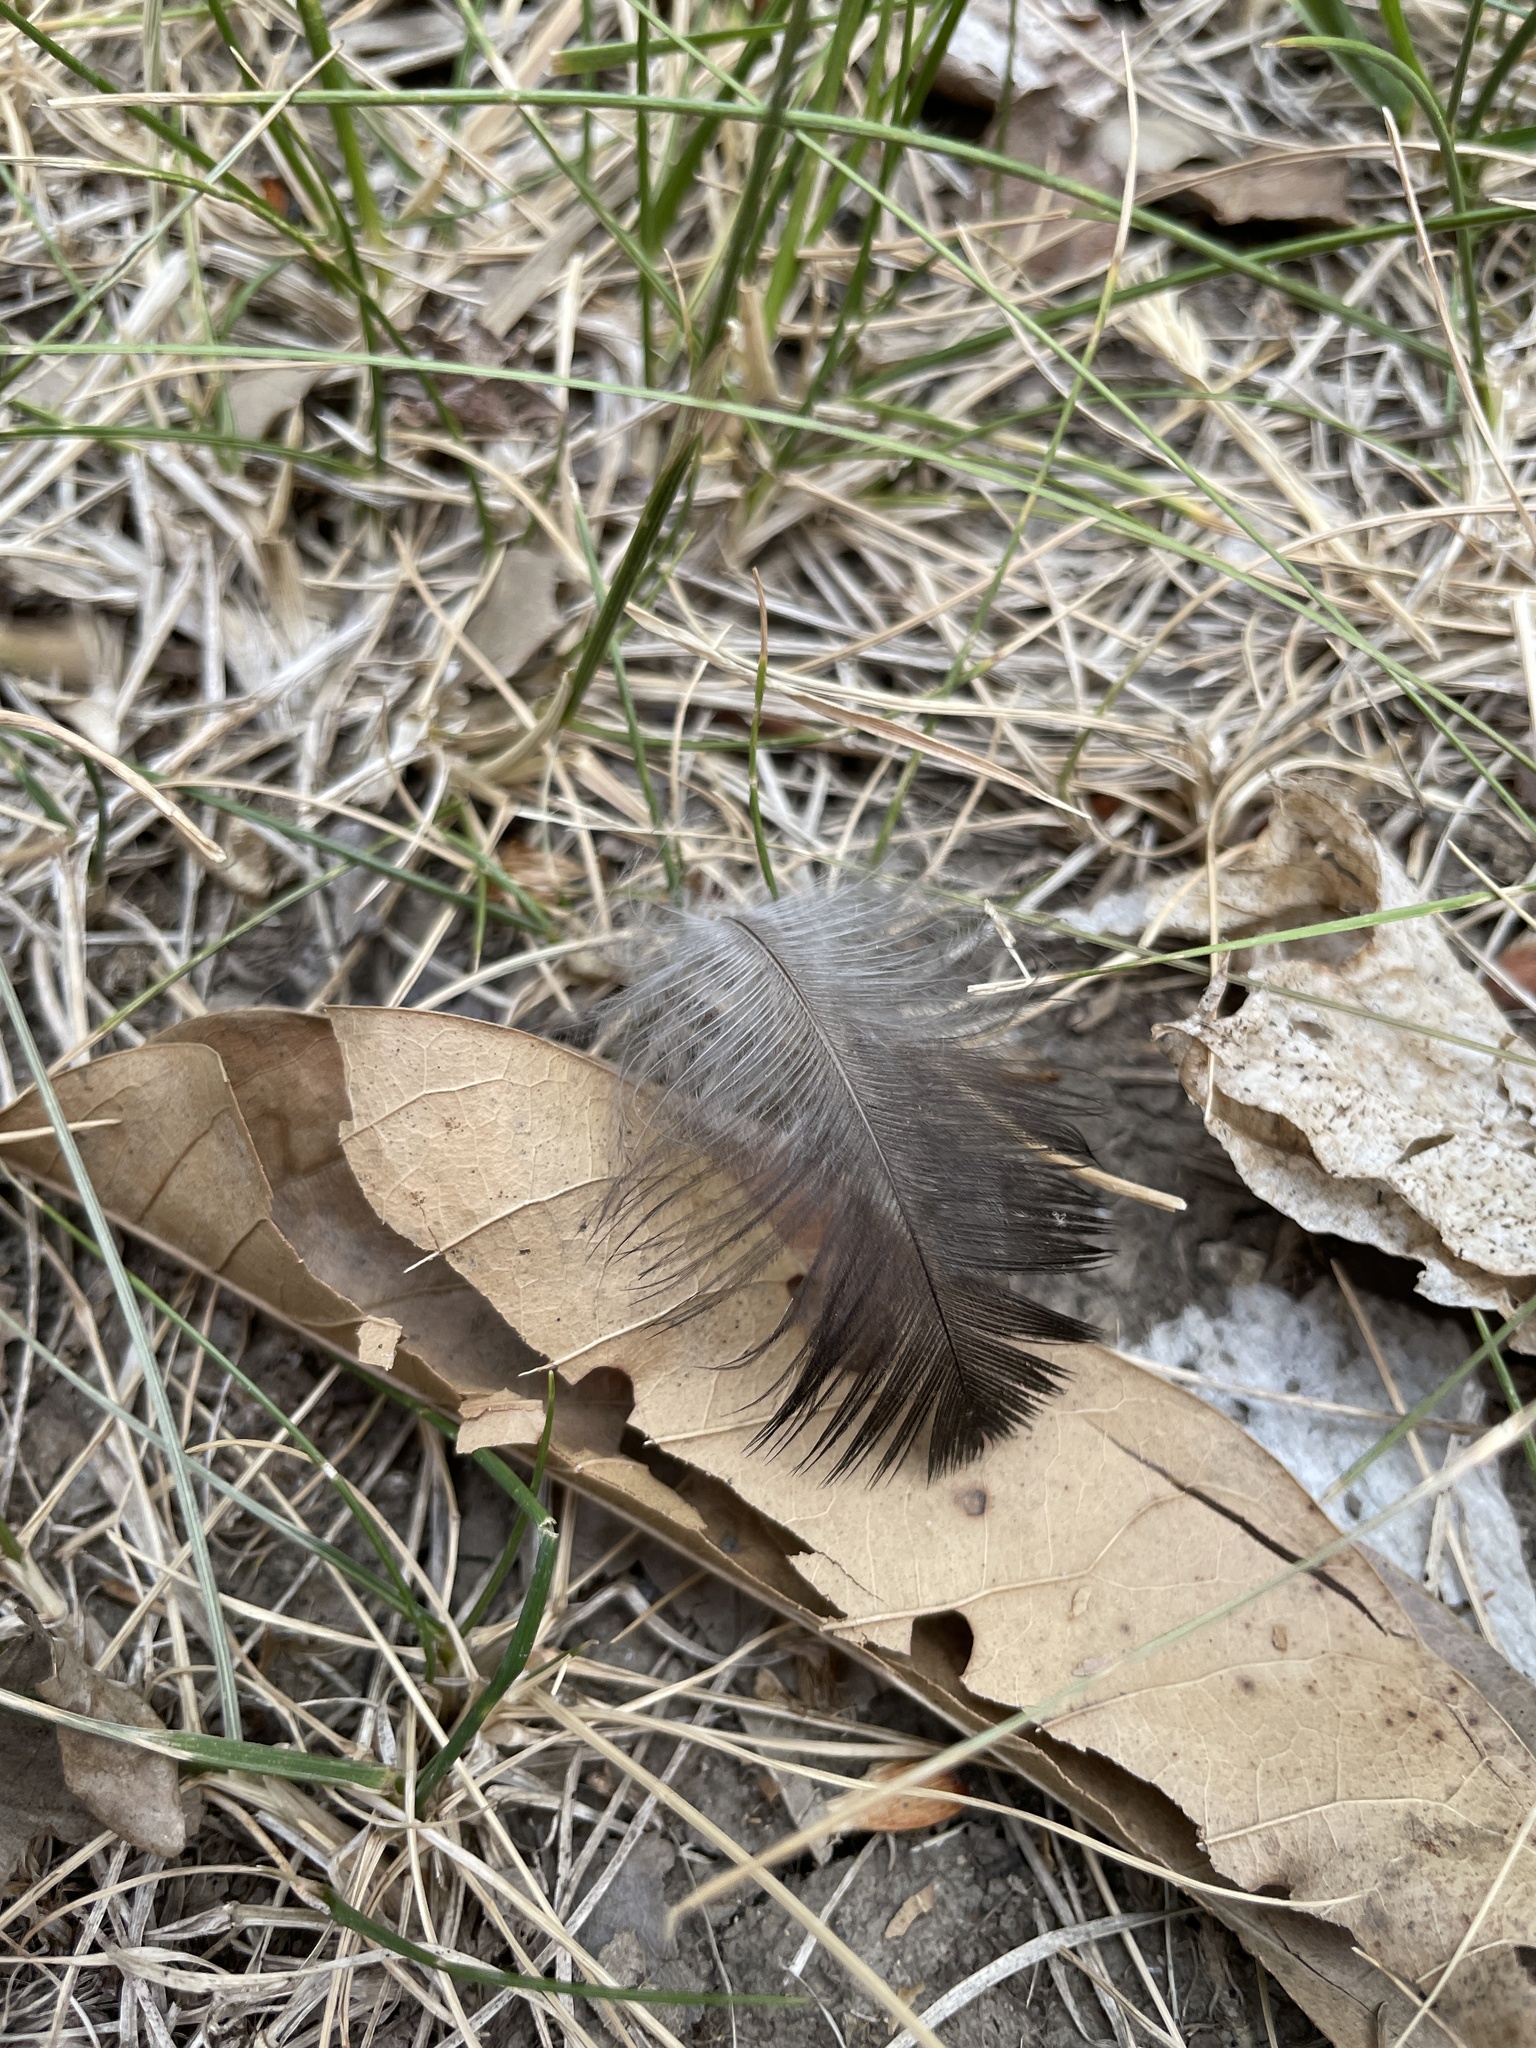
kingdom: Animalia
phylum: Chordata
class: Aves
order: Passeriformes
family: Corvidae
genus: Corvus
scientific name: Corvus brachyrhynchos
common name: American crow
